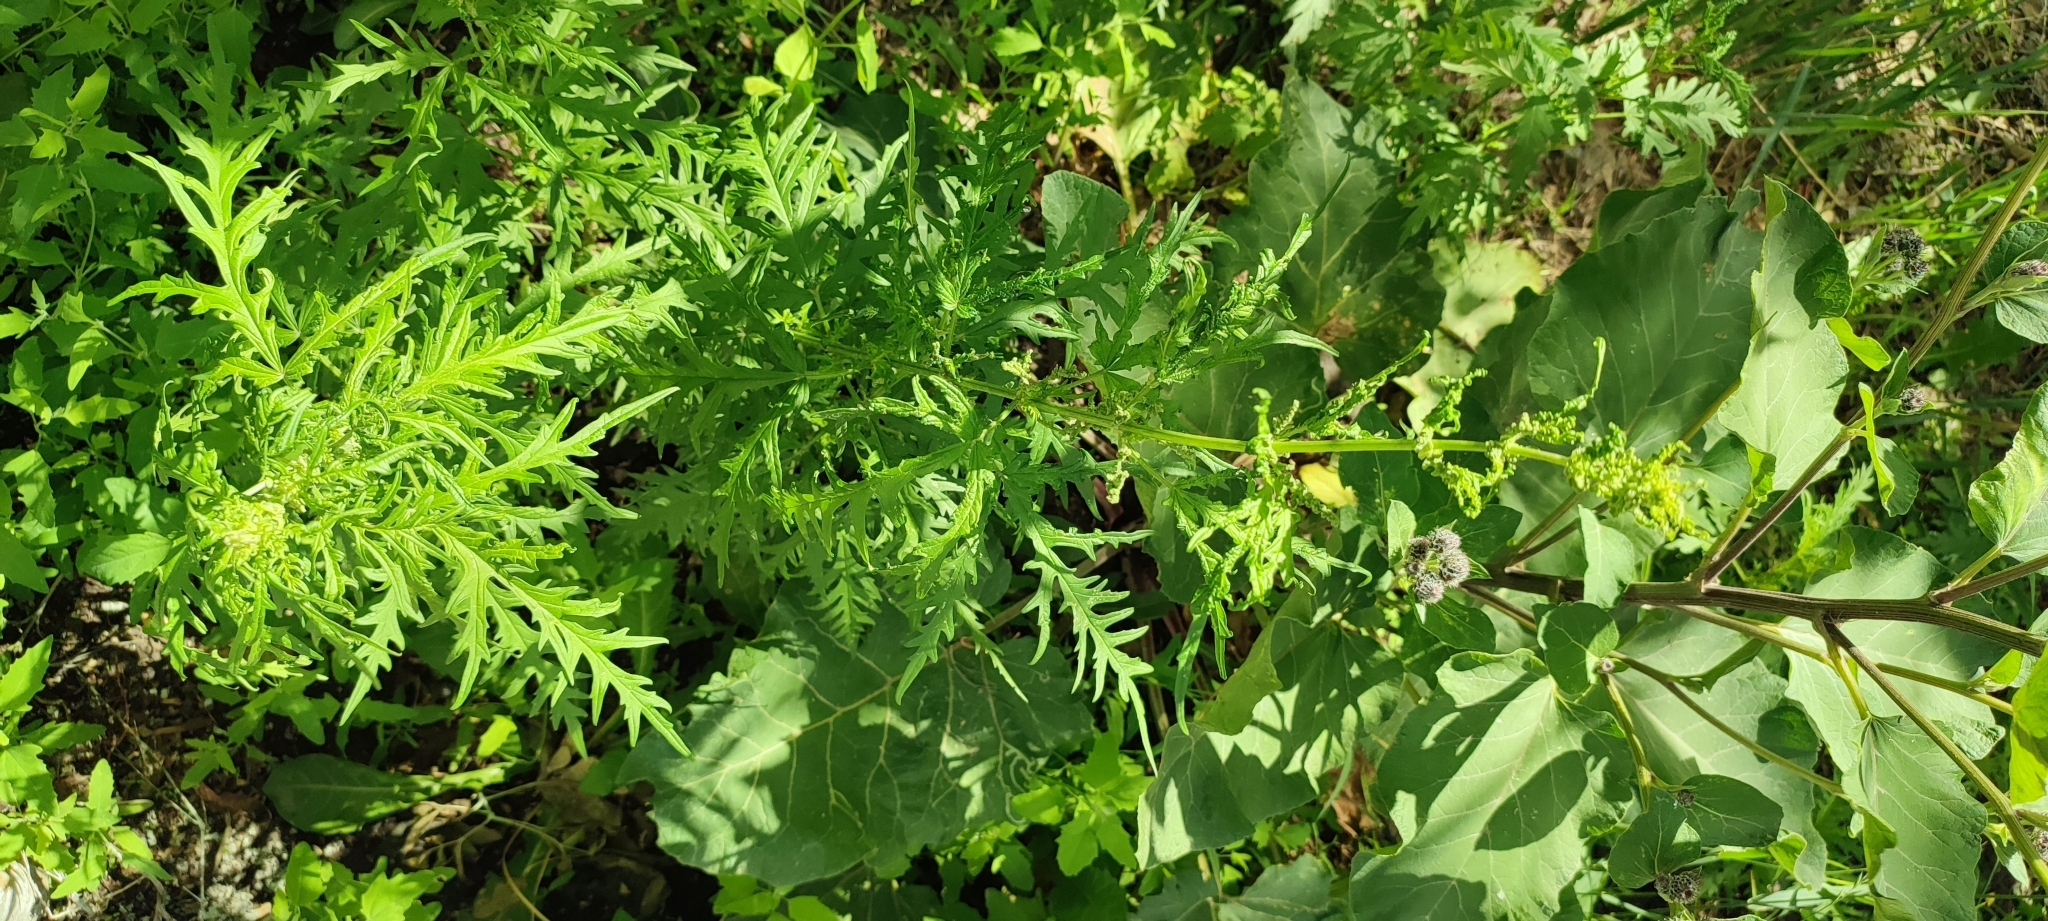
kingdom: Plantae
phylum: Tracheophyta
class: Magnoliopsida
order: Rosales
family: Urticaceae
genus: Urtica
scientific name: Urtica cannabina
